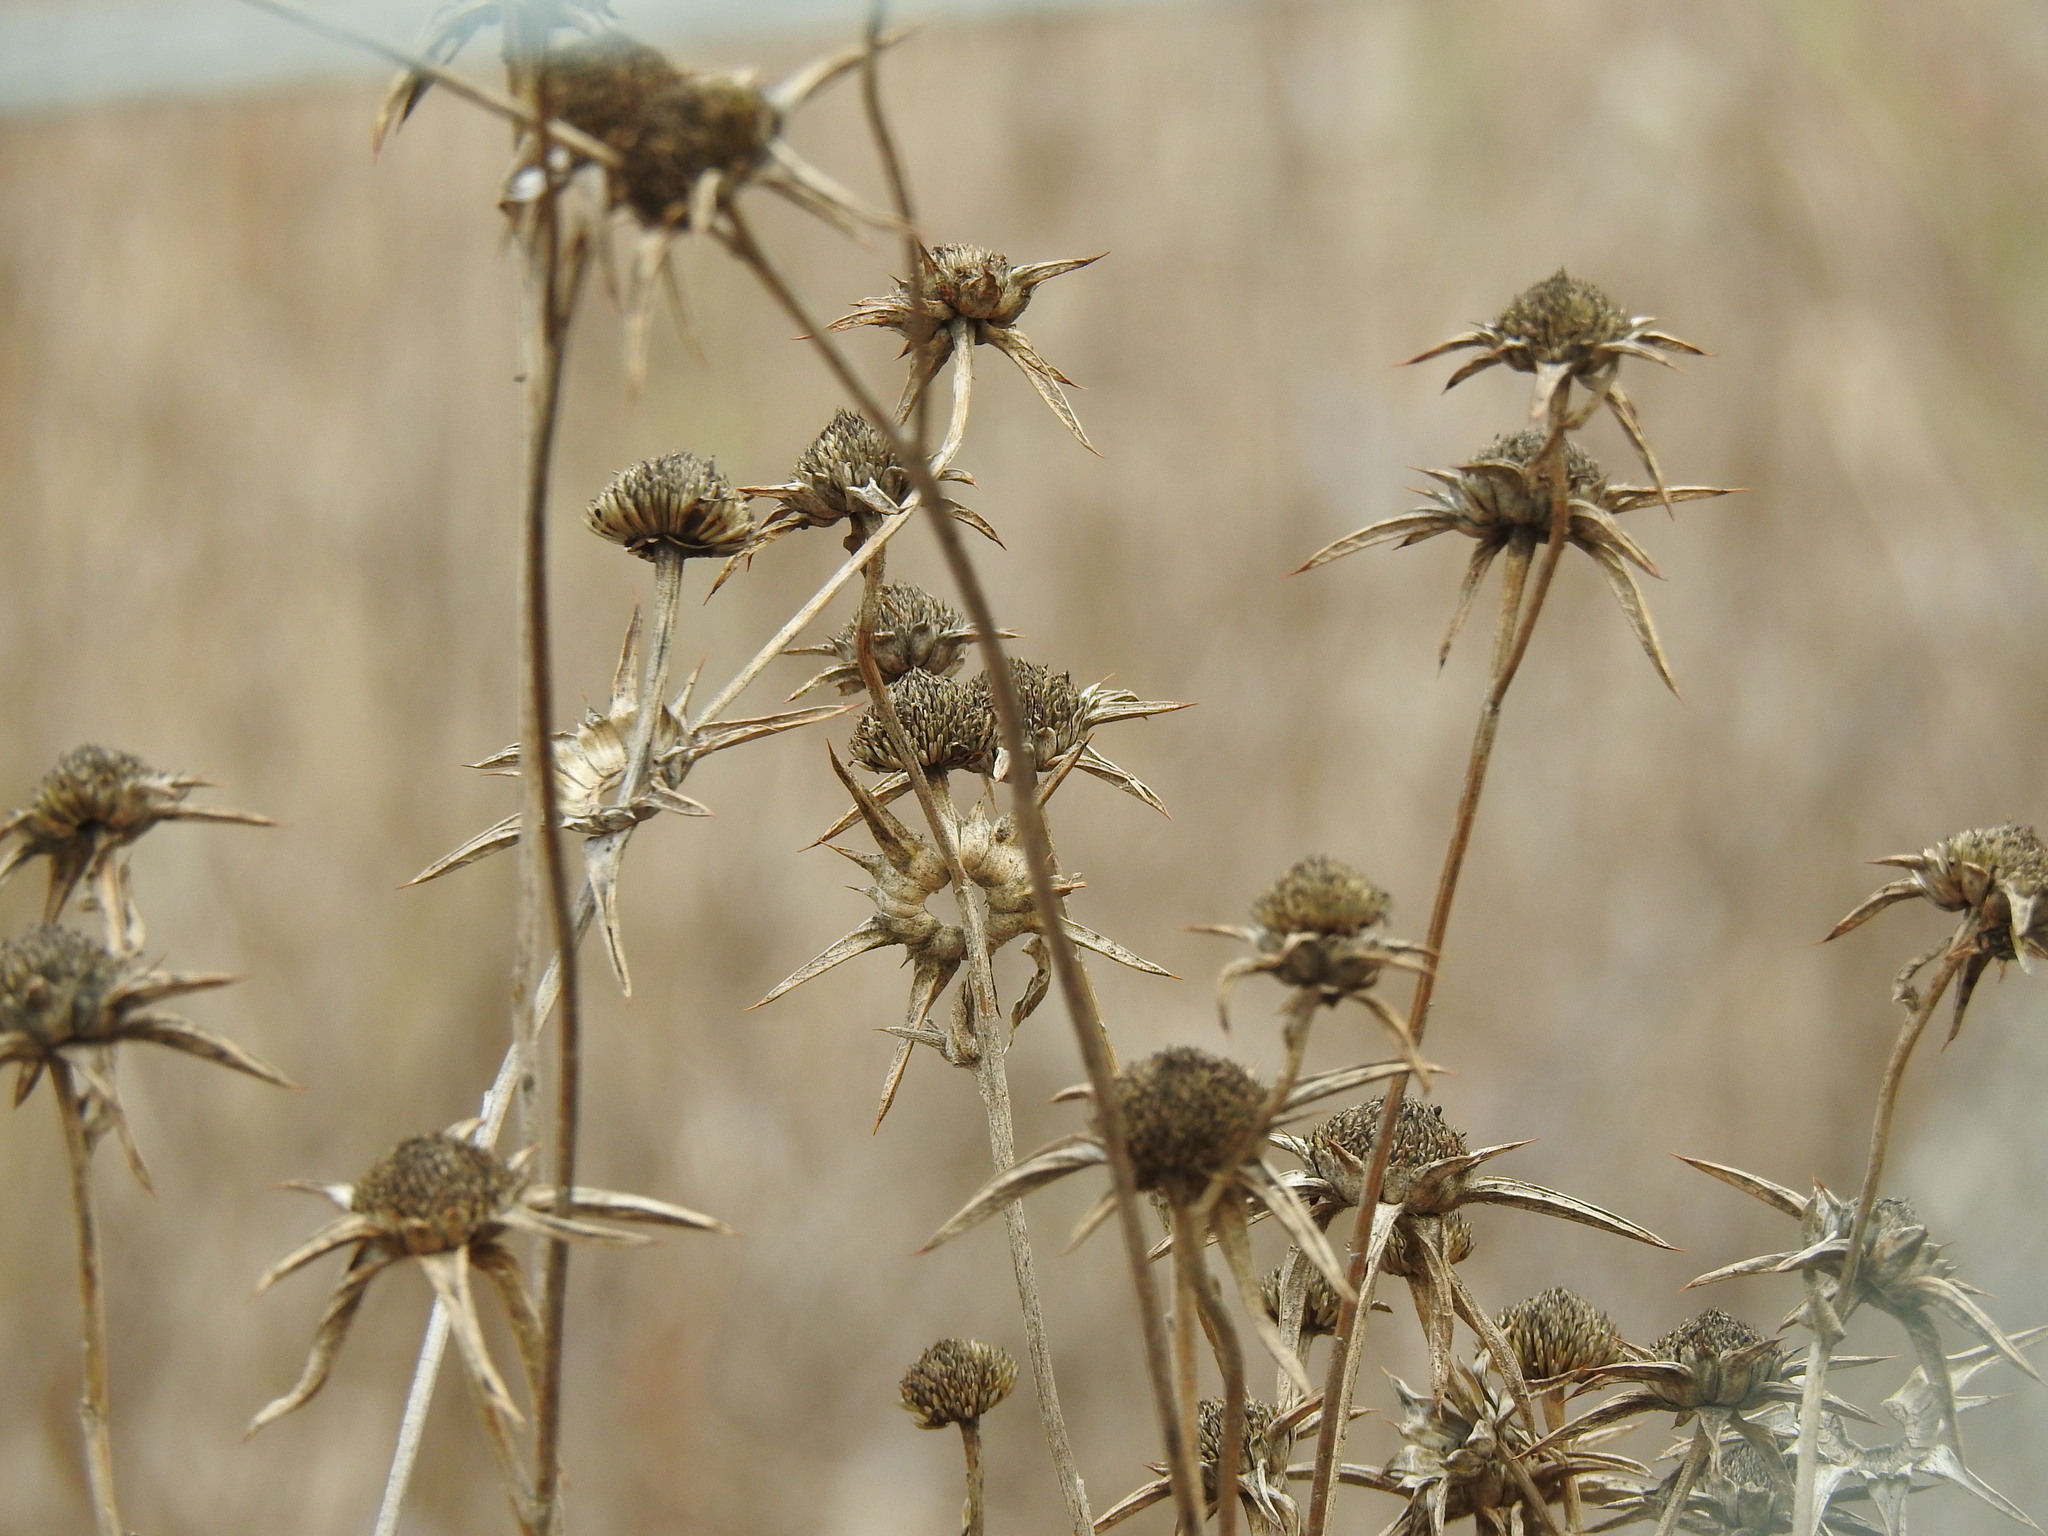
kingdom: Plantae
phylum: Tracheophyta
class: Magnoliopsida
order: Asterales
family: Asteraceae
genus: Pallenis
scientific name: Pallenis spinosa
